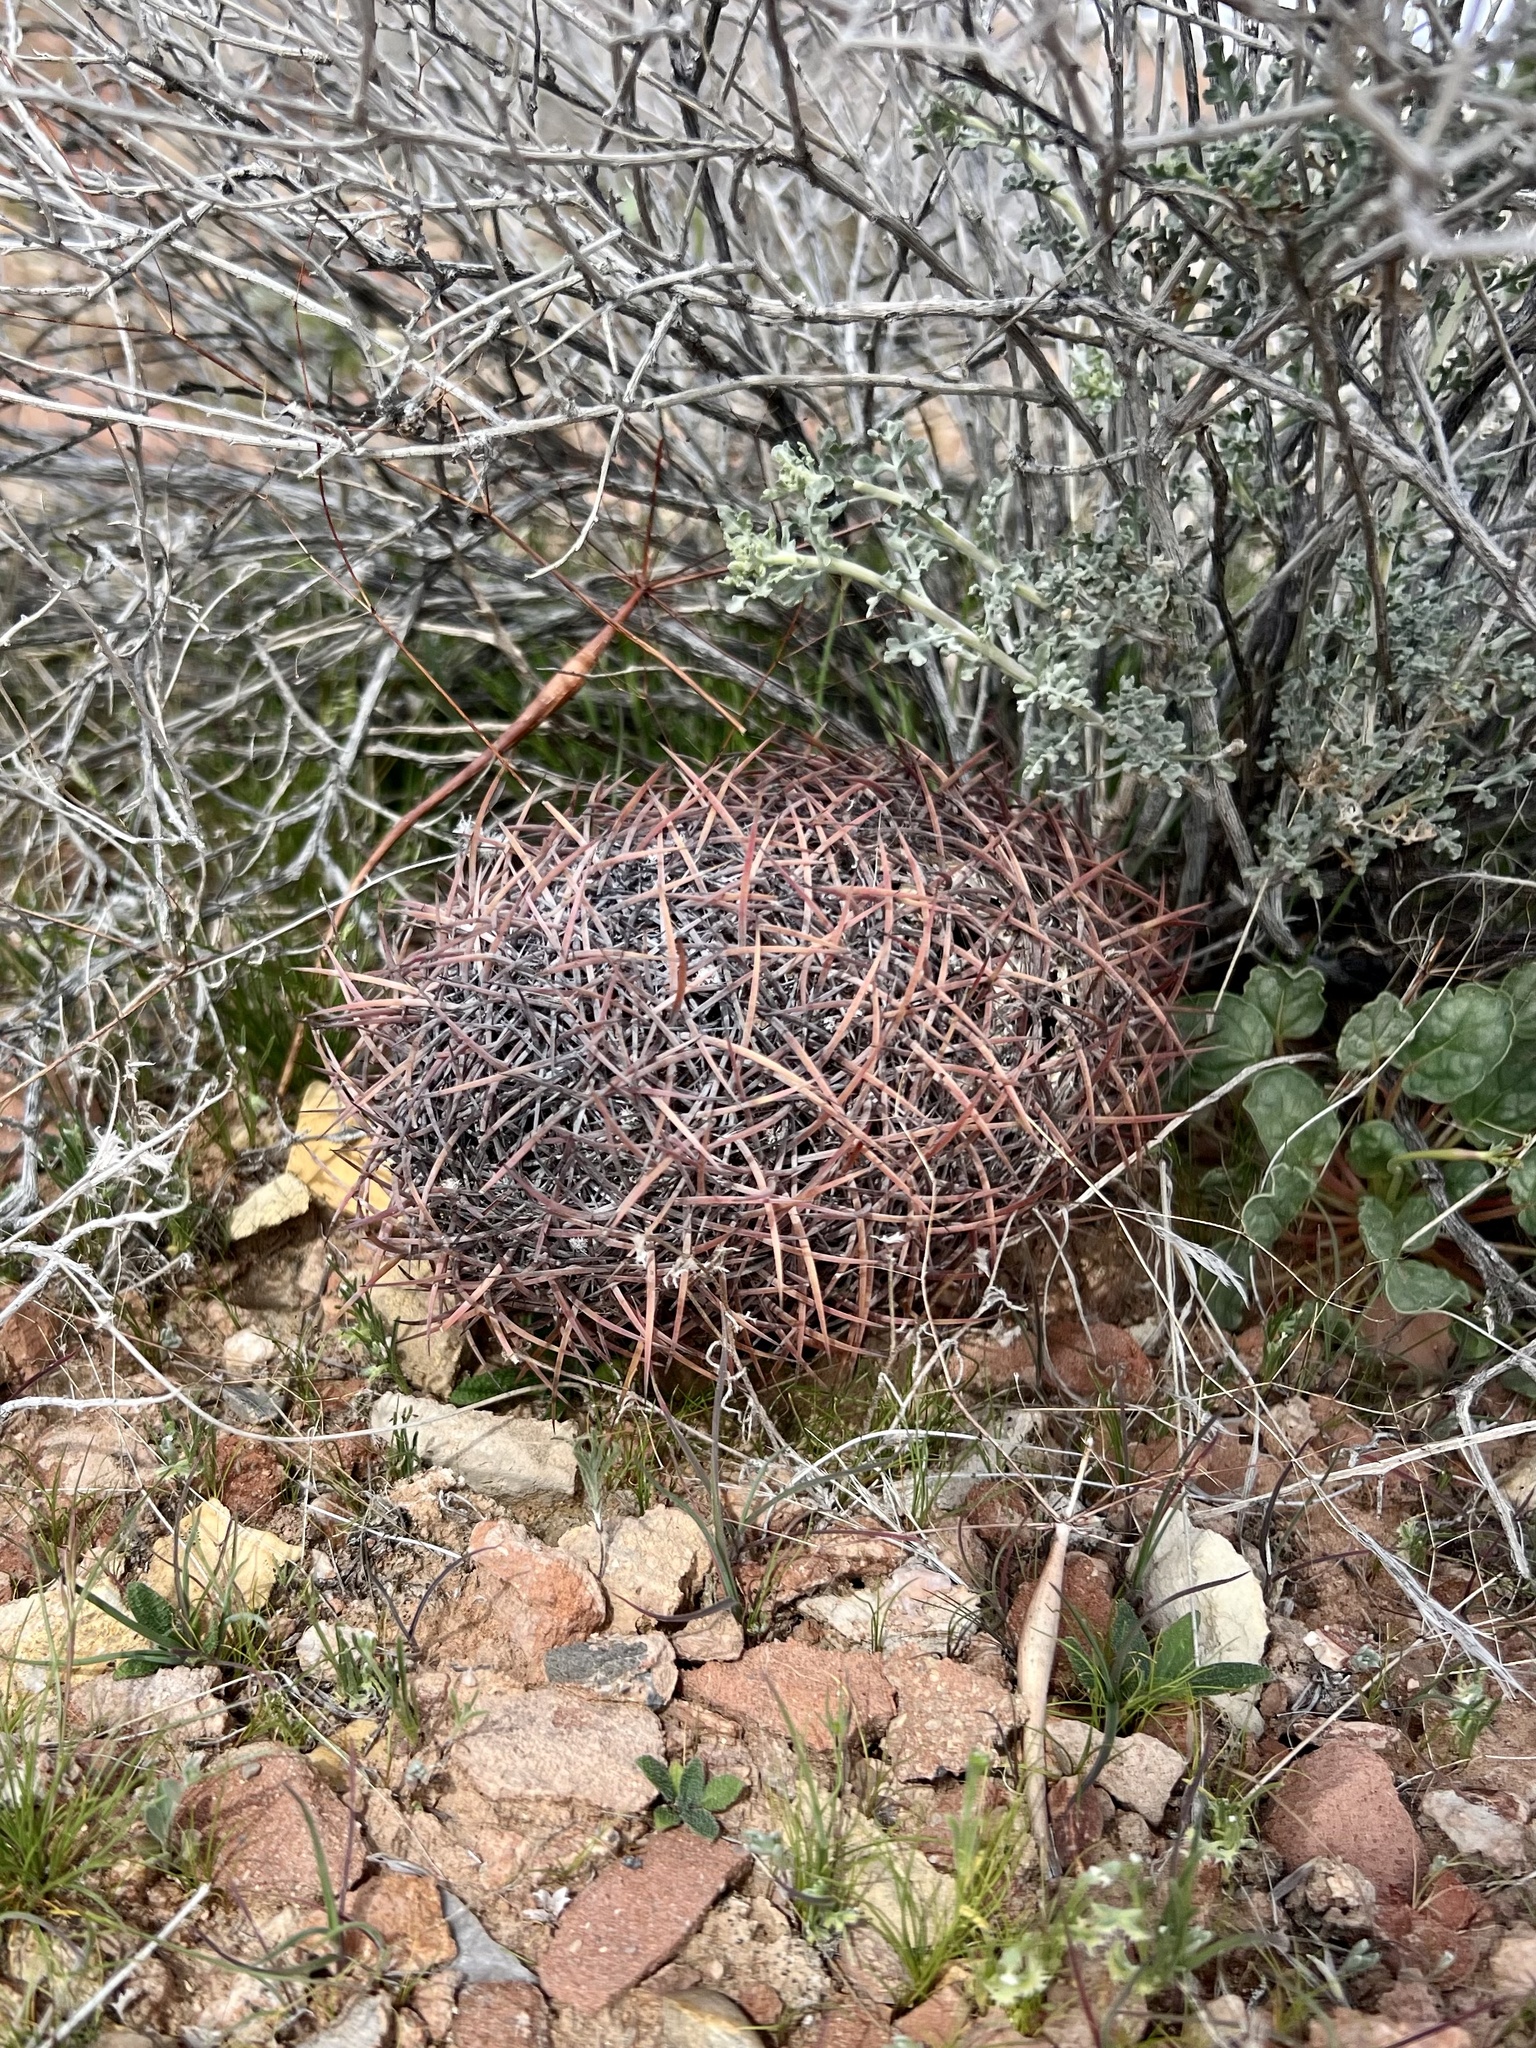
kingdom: Plantae
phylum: Tracheophyta
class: Magnoliopsida
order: Caryophyllales
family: Cactaceae
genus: Sclerocactus
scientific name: Sclerocactus johnsonii
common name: Eight-spine fishhook cactus
